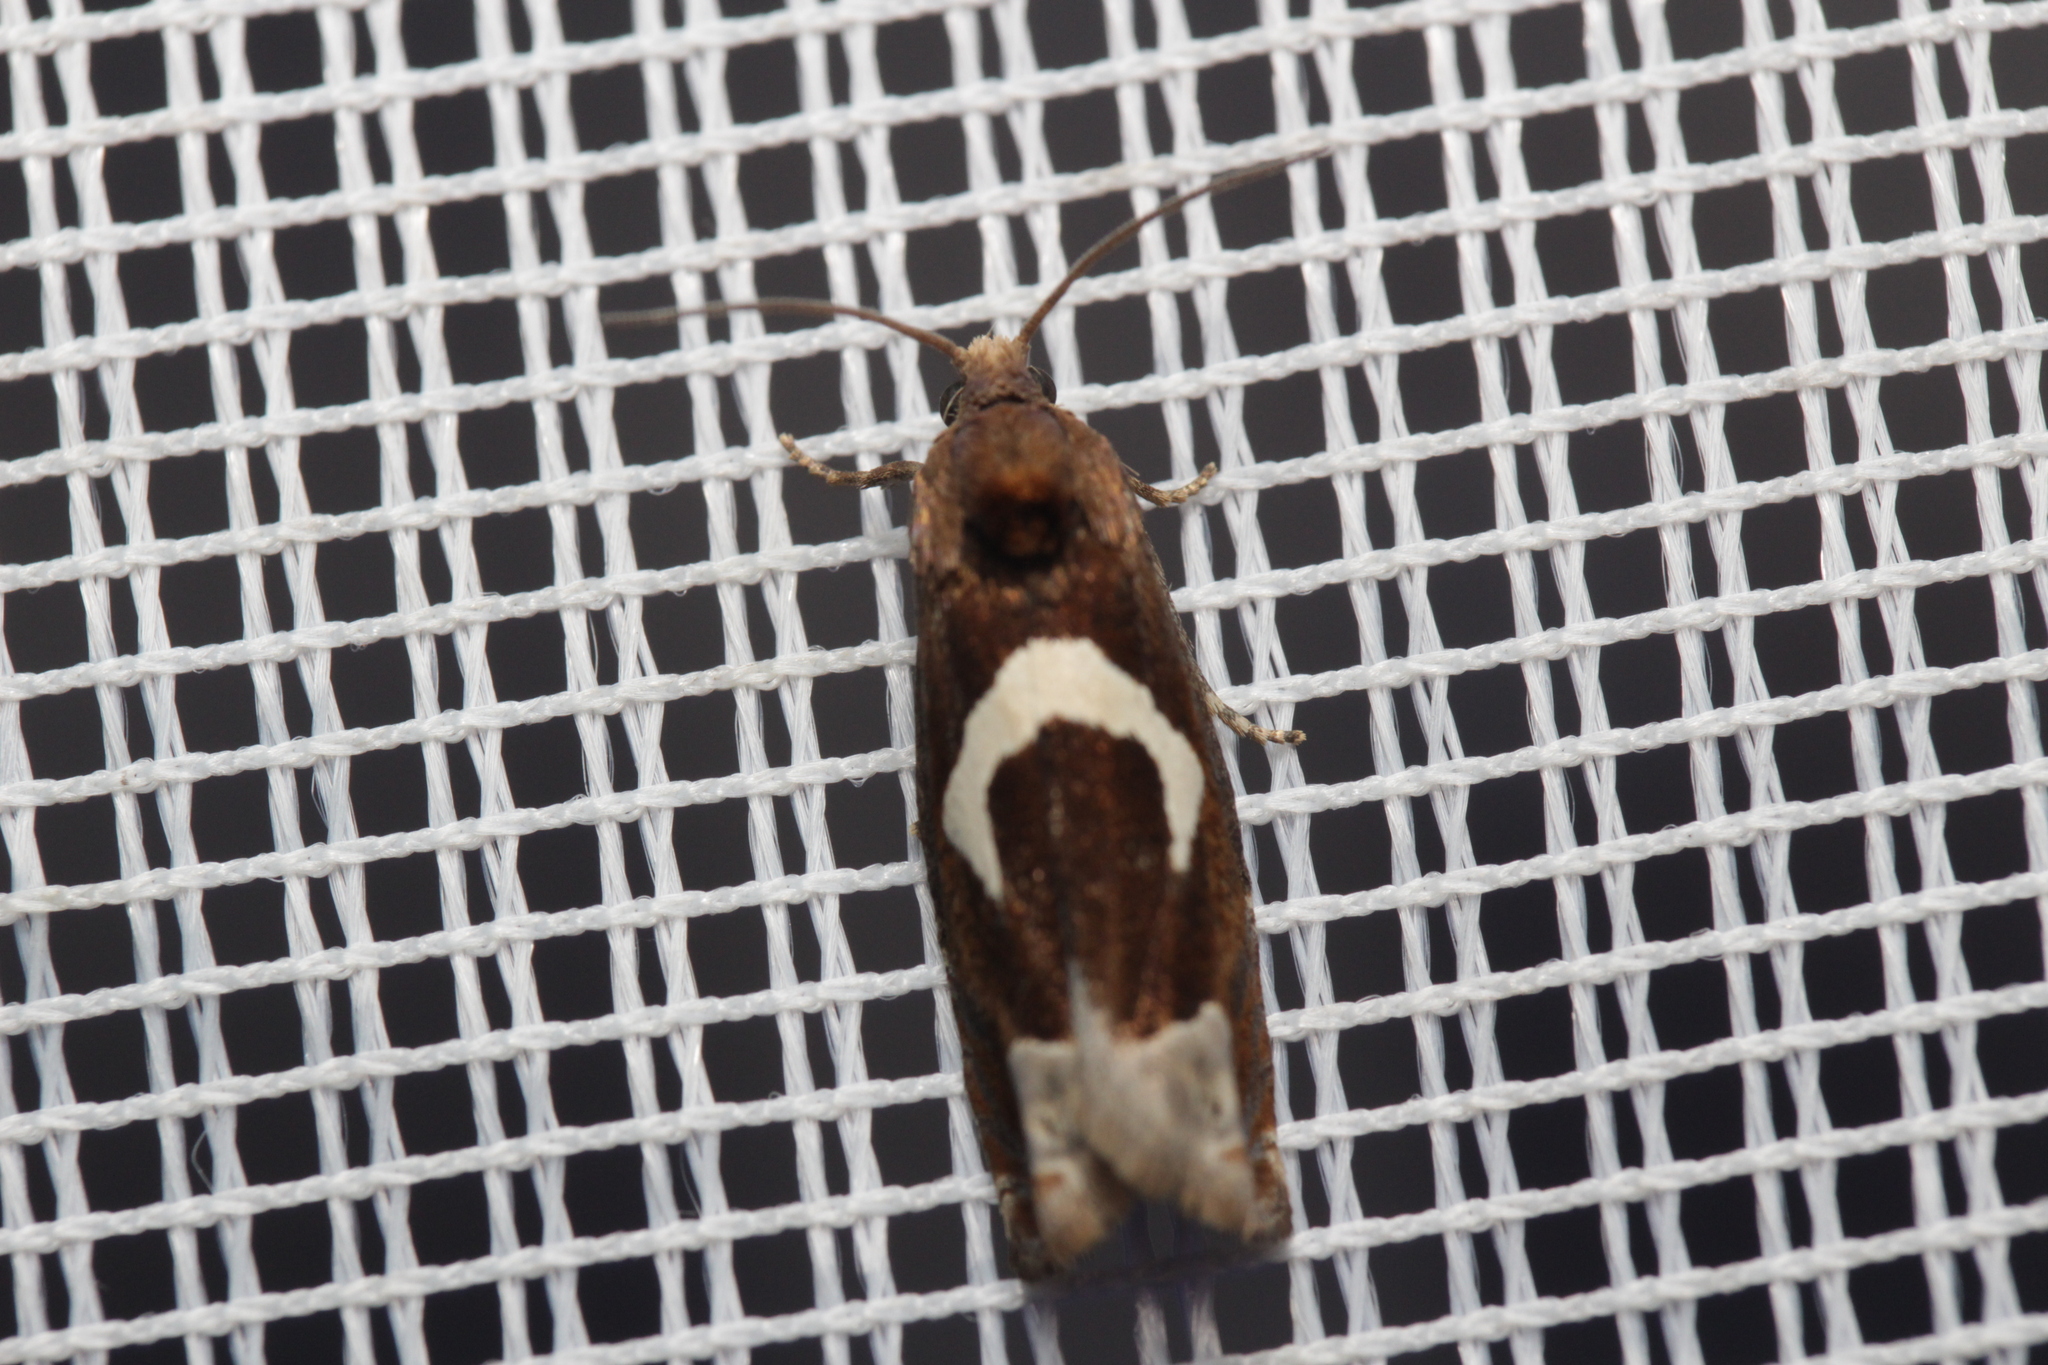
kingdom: Animalia
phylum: Arthropoda
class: Insecta
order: Lepidoptera
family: Tortricidae
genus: Epiblema
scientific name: Epiblema foenella
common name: White-foot bell
